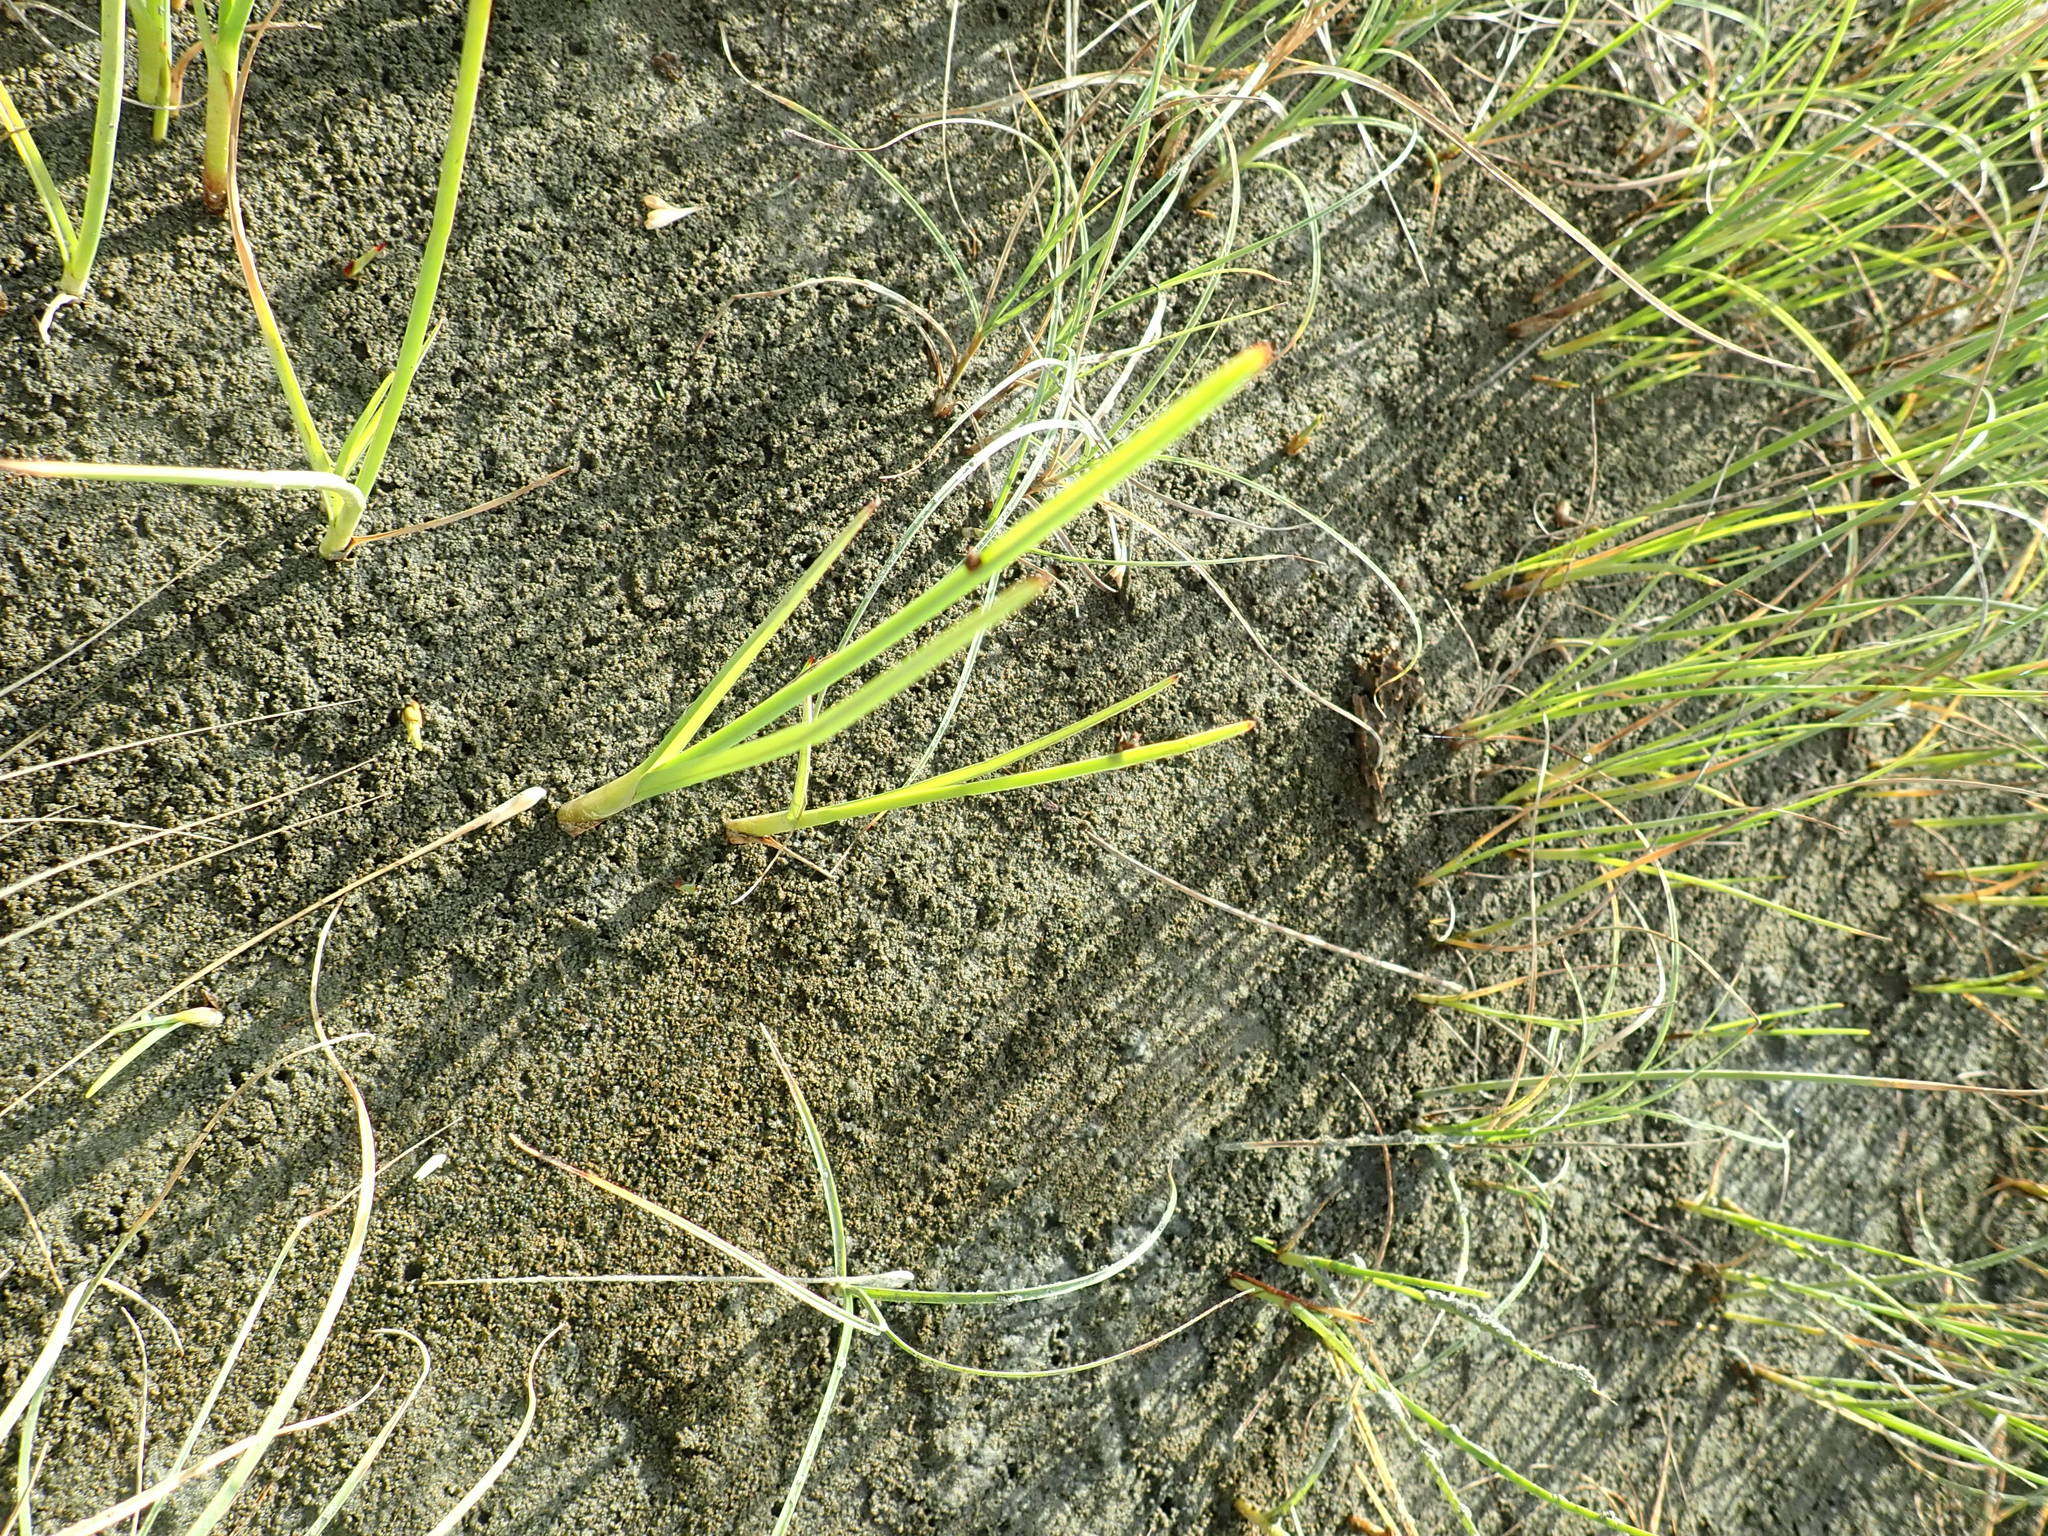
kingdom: Plantae
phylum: Tracheophyta
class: Liliopsida
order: Poales
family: Cyperaceae
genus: Schoenoplectus
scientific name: Schoenoplectus pungens
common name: Sharp club-rush
